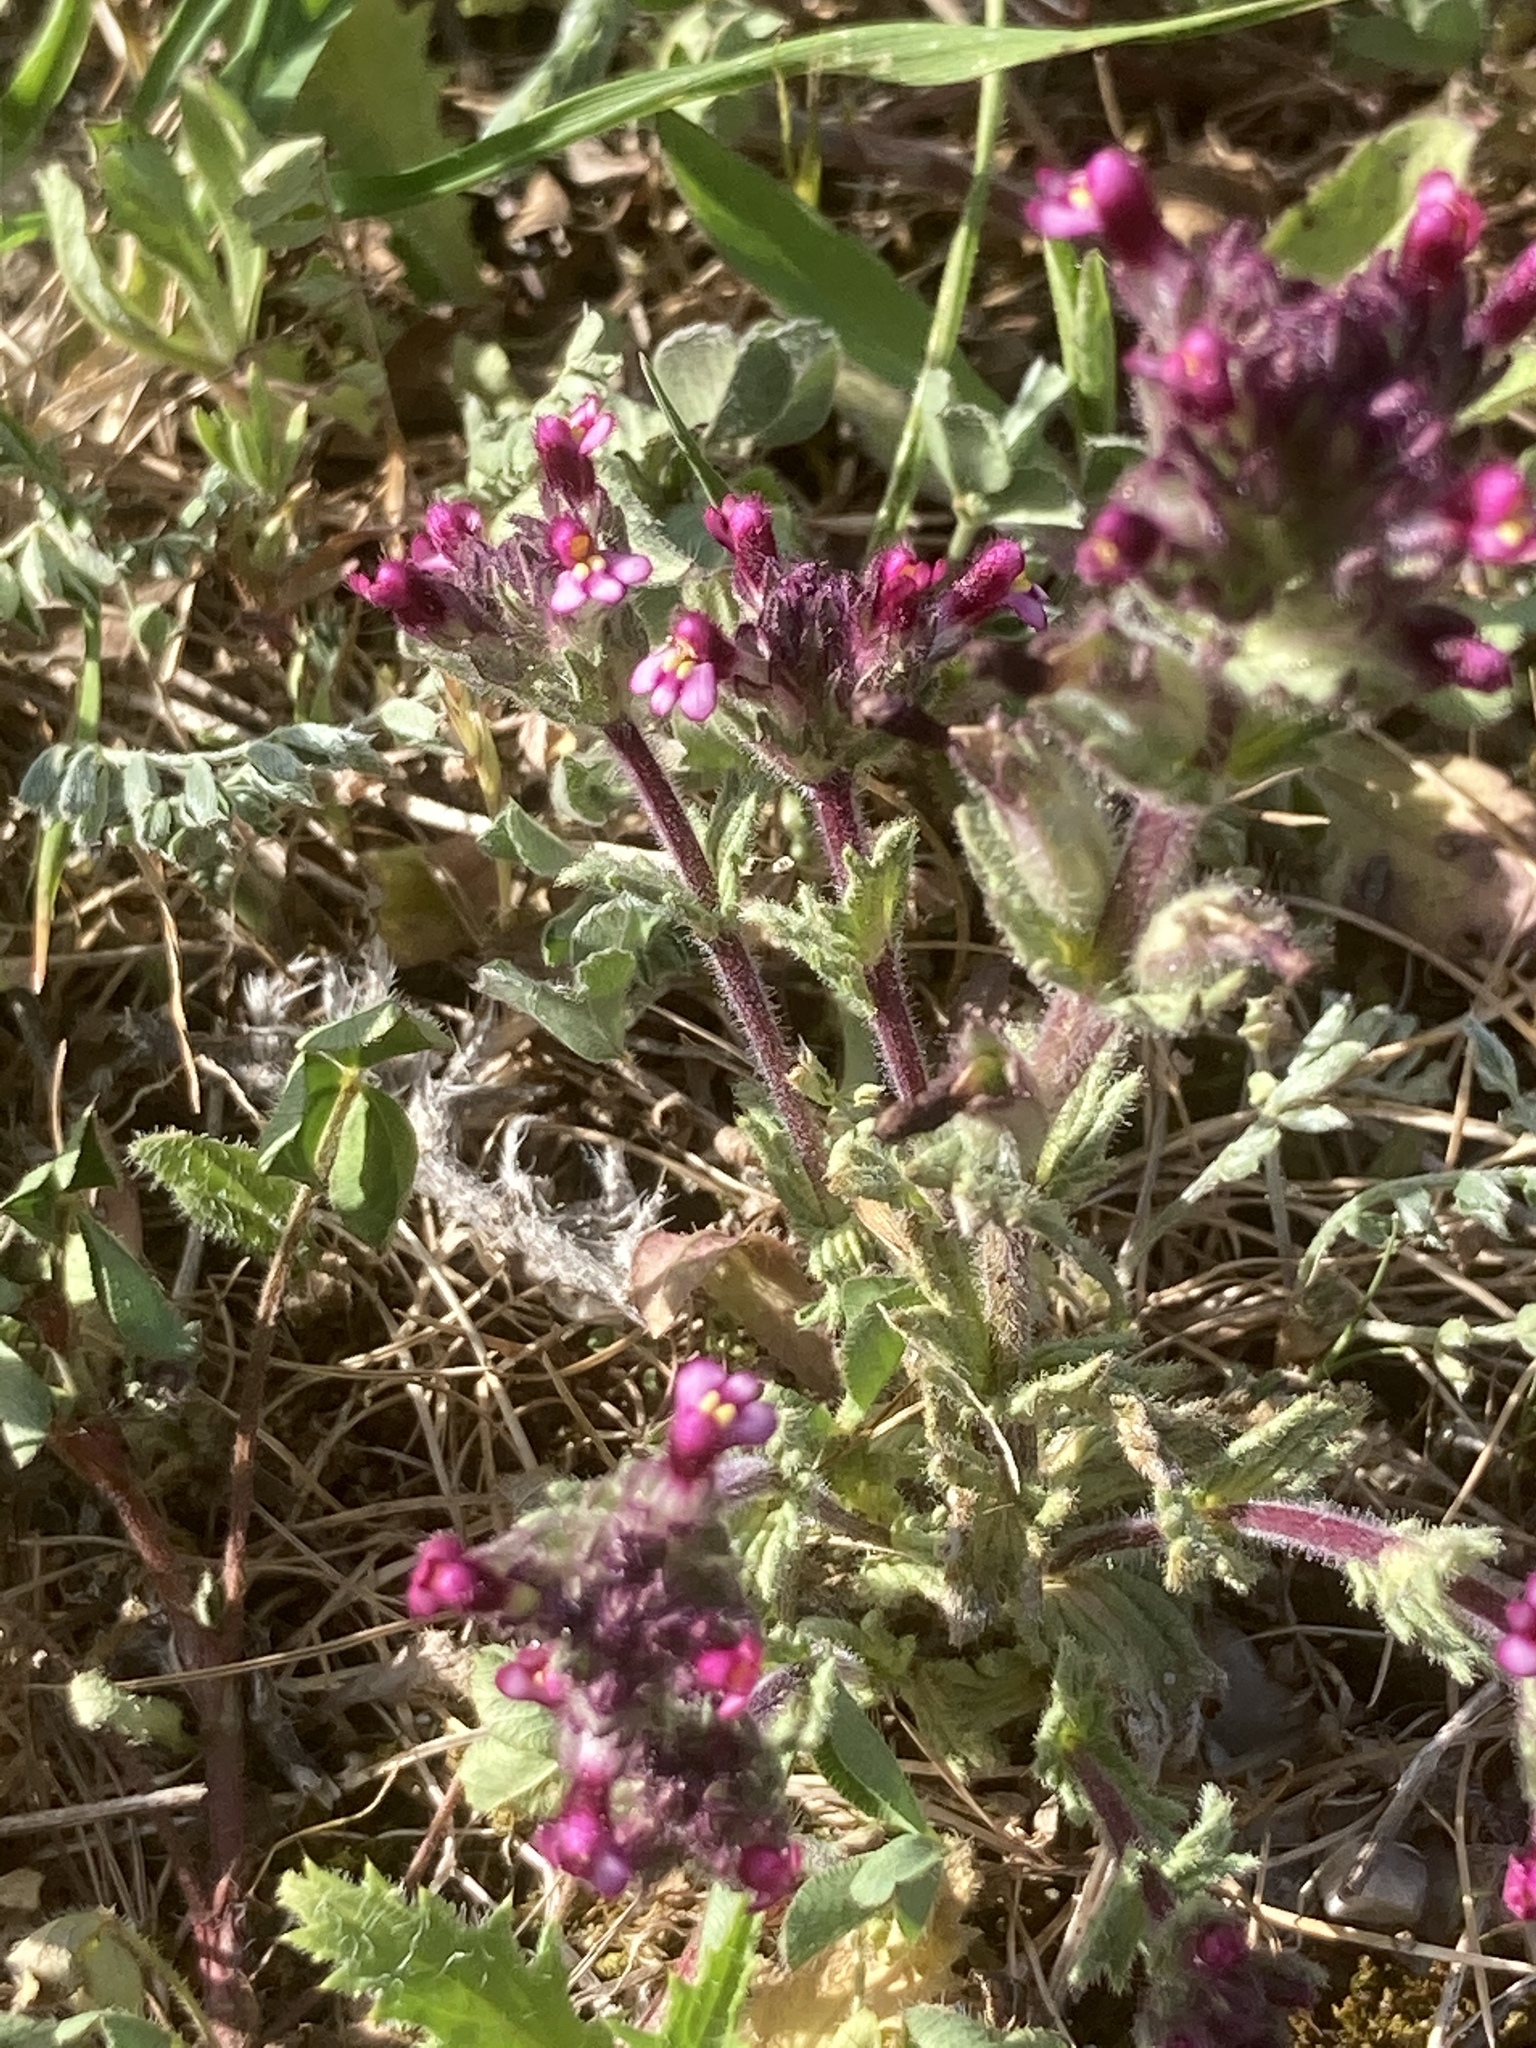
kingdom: Plantae
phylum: Tracheophyta
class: Magnoliopsida
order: Lamiales
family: Orobanchaceae
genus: Parentucellia
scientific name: Parentucellia latifolia
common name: Broadleaf glandweed
